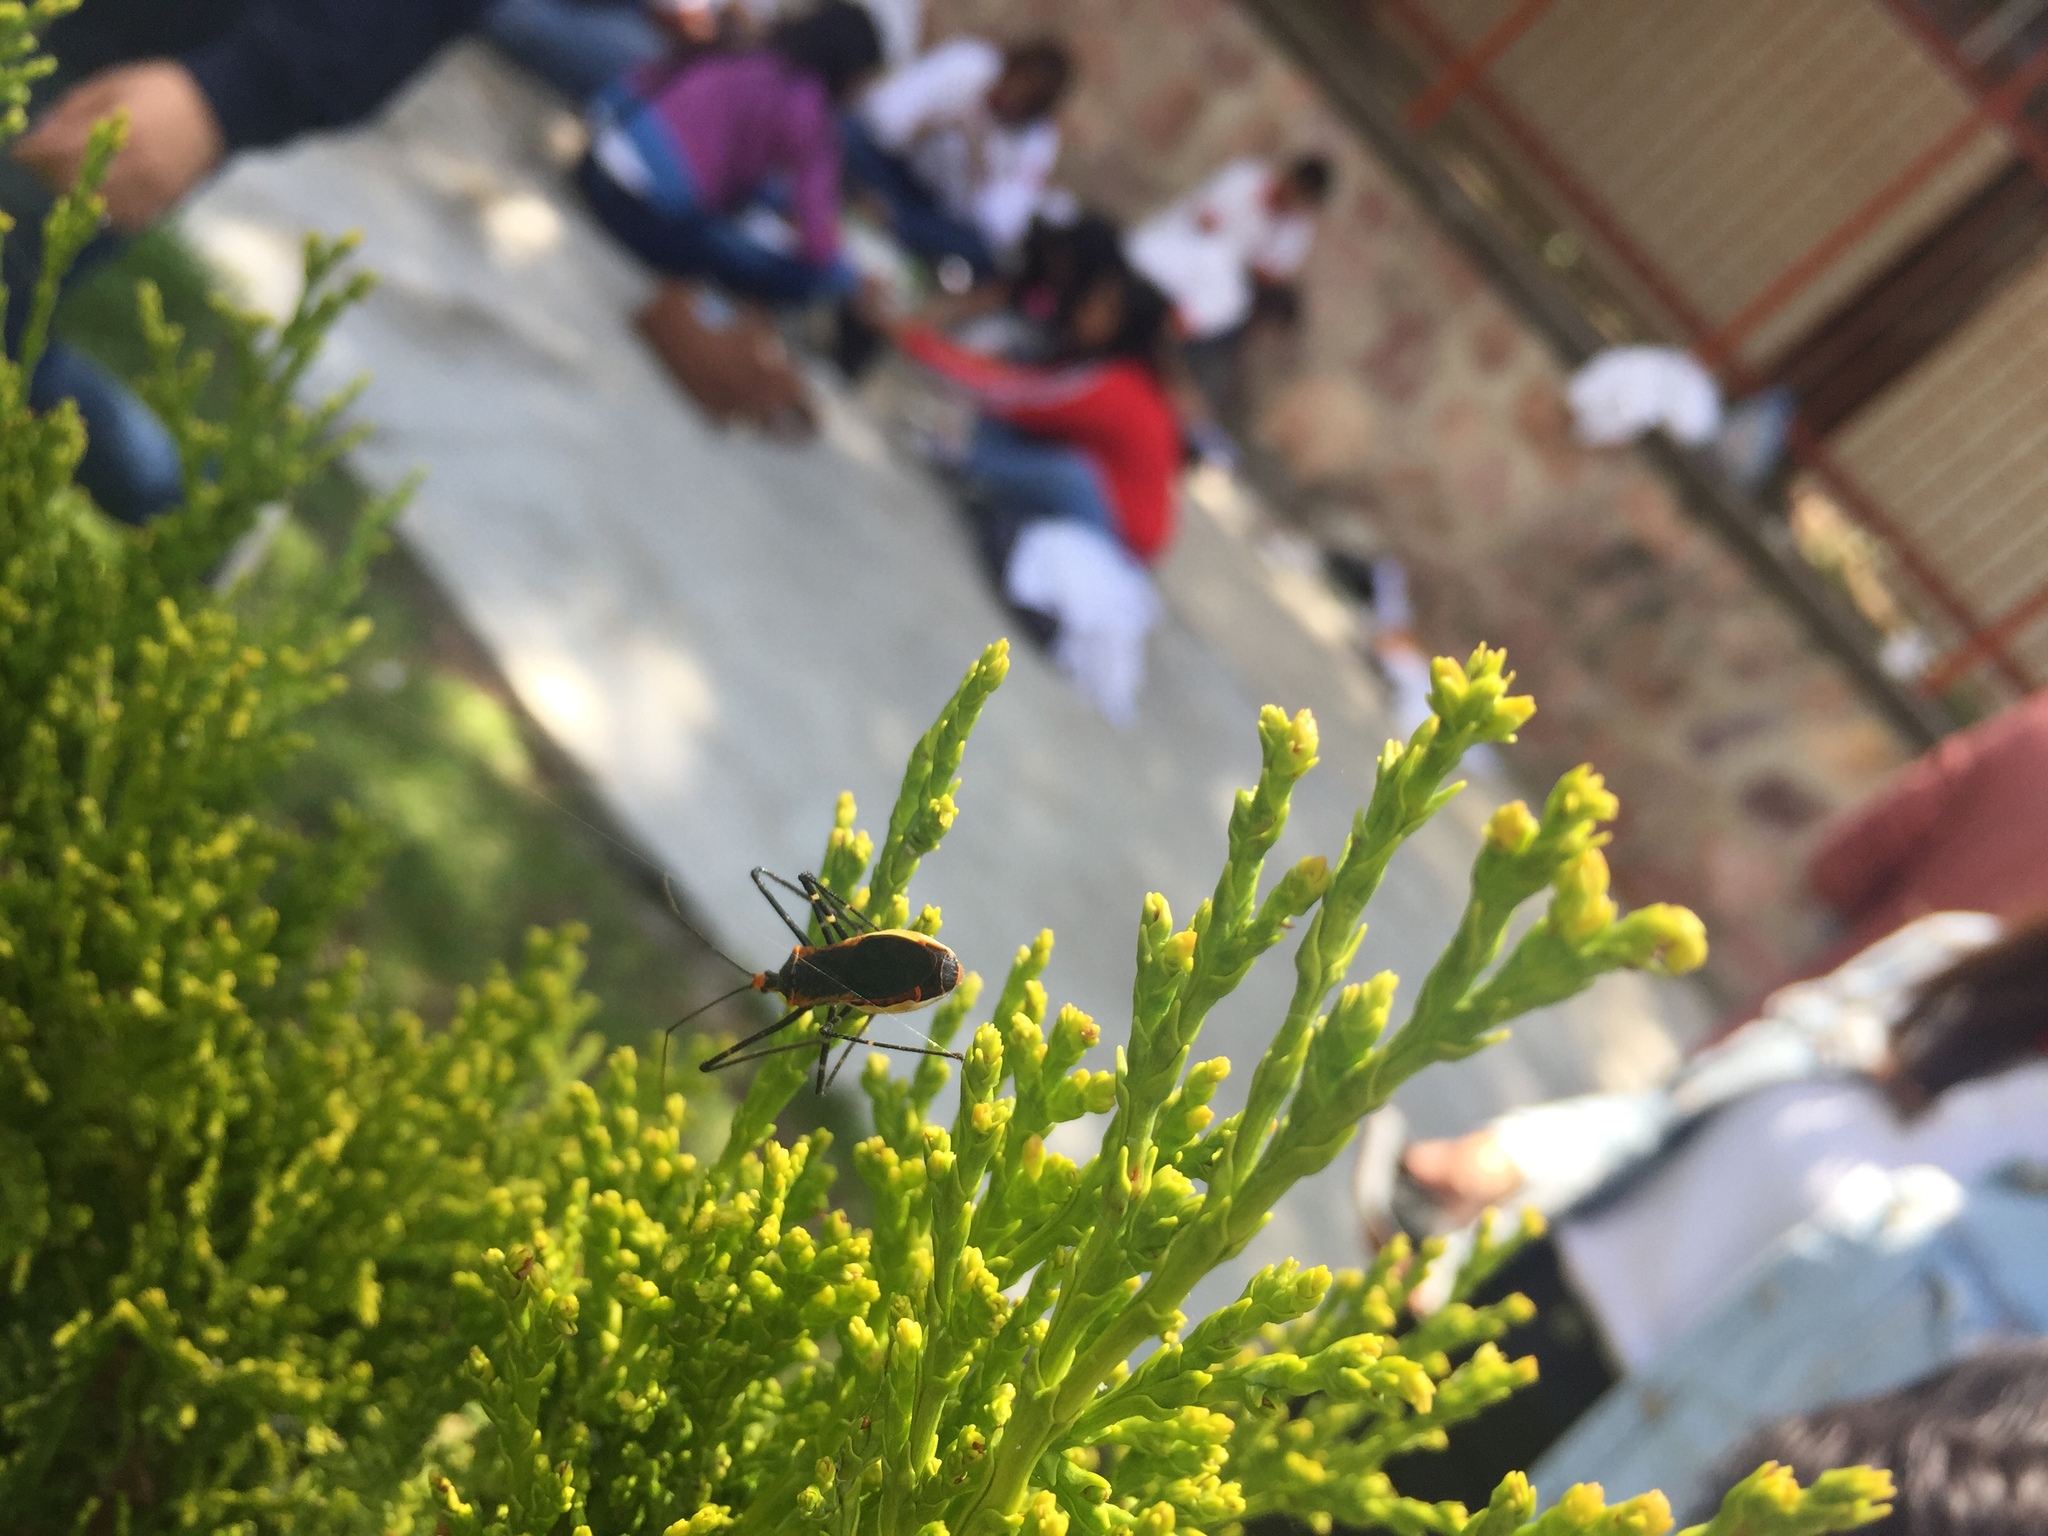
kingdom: Animalia
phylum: Arthropoda
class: Insecta
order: Hemiptera
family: Reduviidae
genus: Zelus
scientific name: Zelus longipes
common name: Milkweed assassin bug
